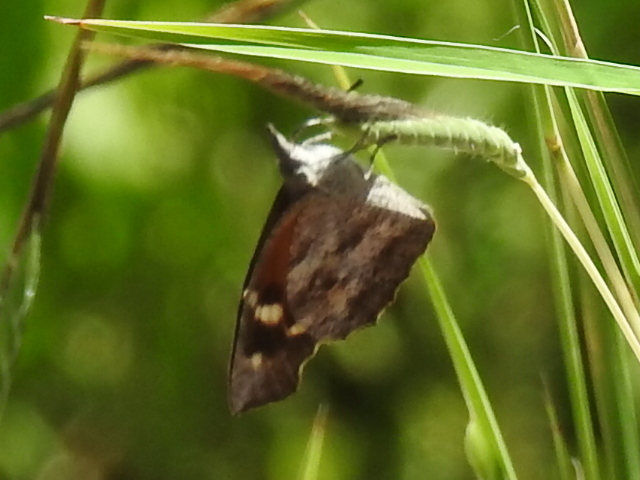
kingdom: Animalia
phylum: Arthropoda
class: Insecta
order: Lepidoptera
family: Nymphalidae
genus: Libytheana
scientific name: Libytheana carinenta
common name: American snout
